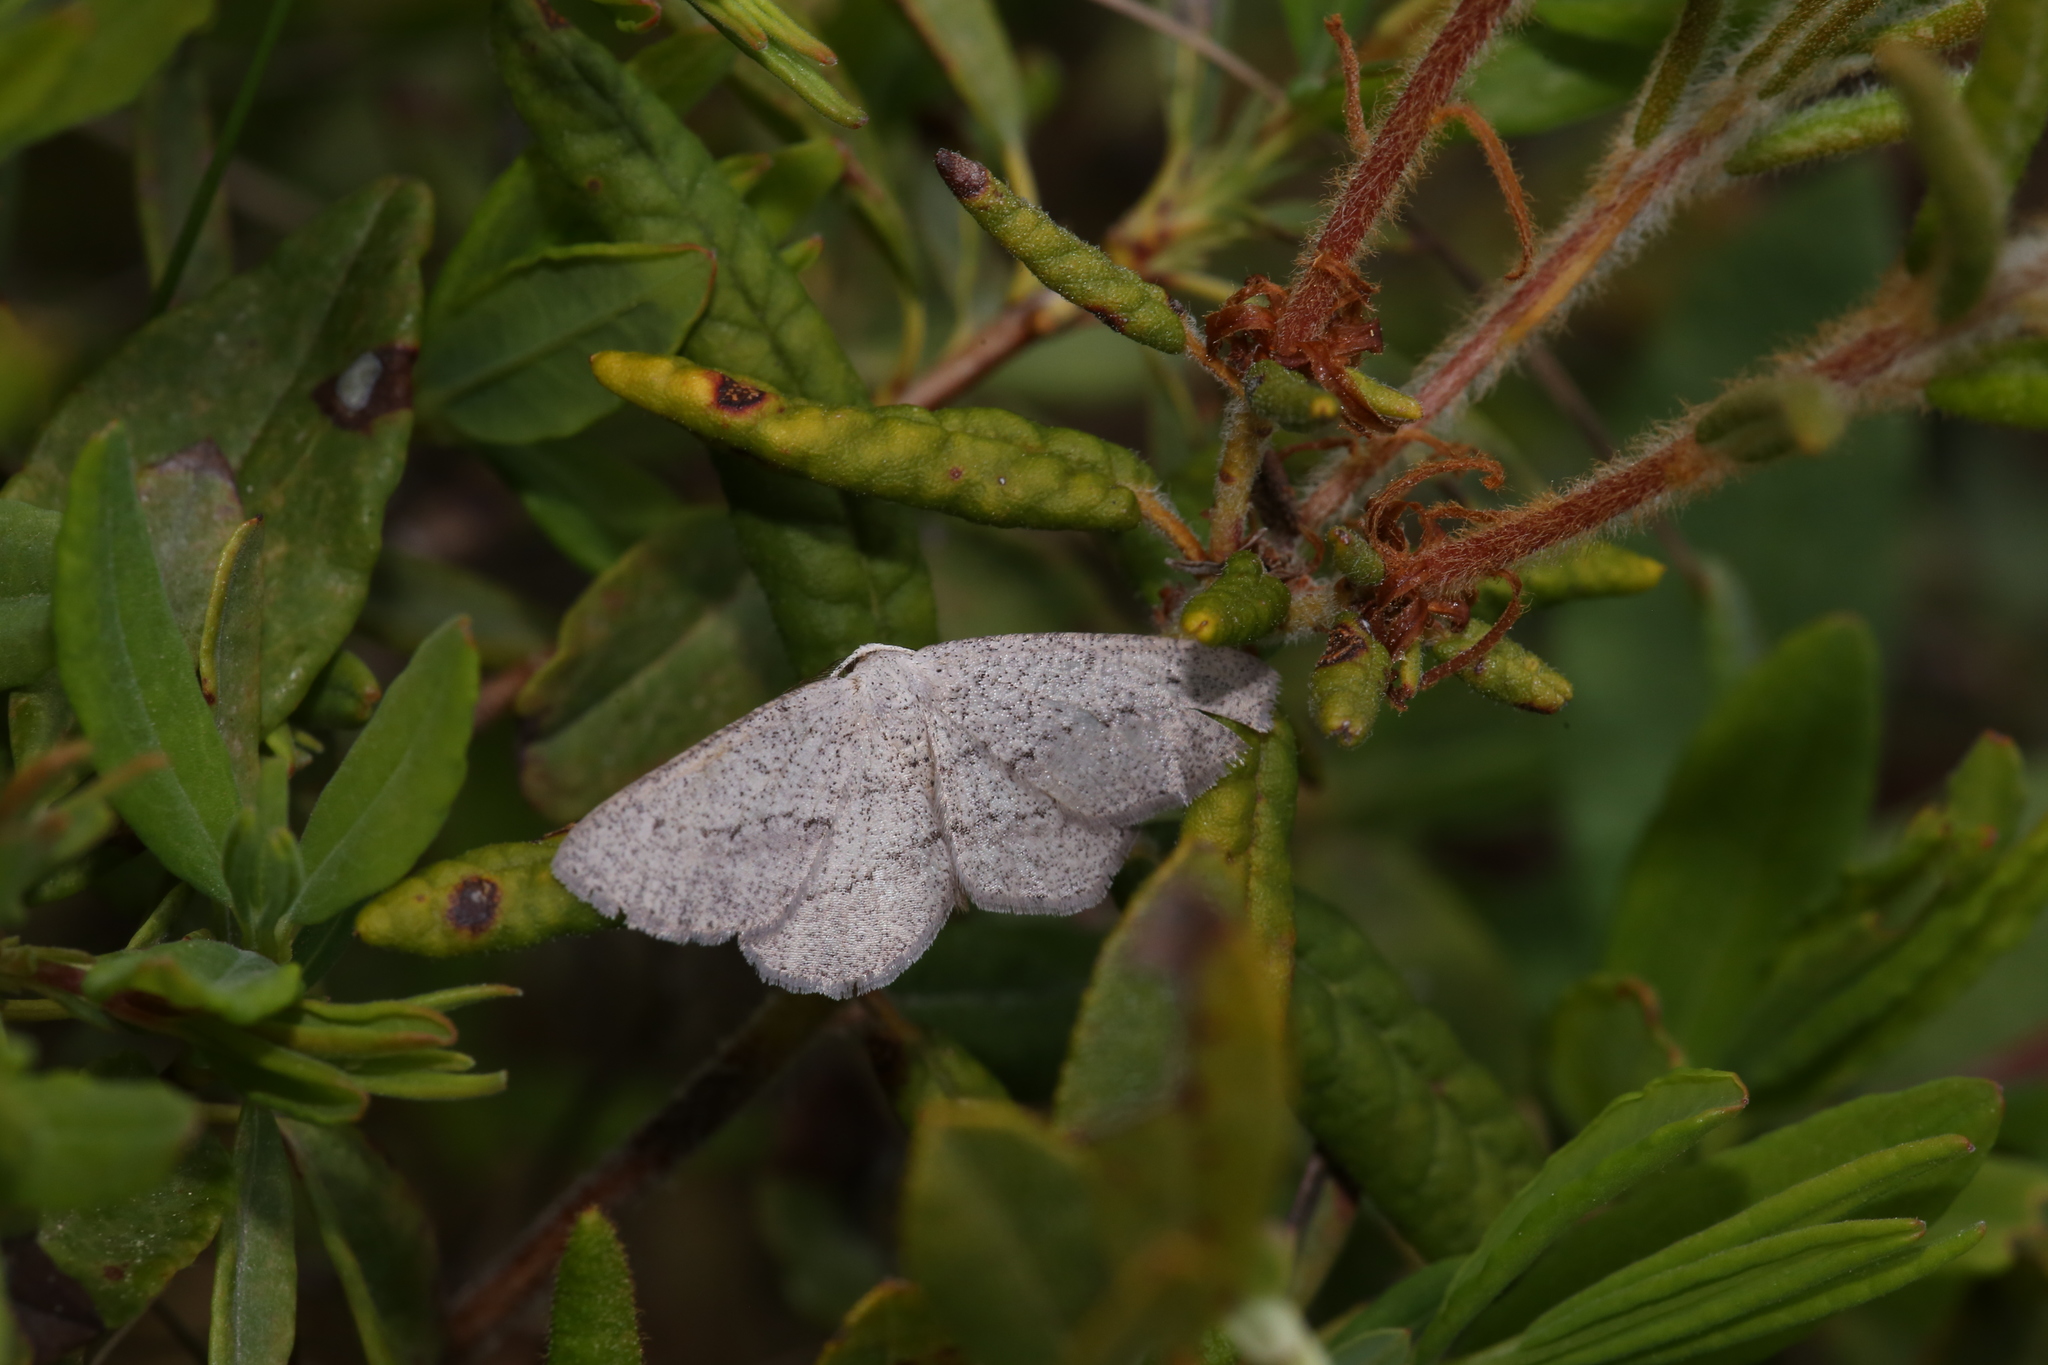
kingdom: Animalia
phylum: Arthropoda
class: Insecta
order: Lepidoptera
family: Geometridae
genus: Glena
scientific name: Glena cognataria
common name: Blueberry gray
